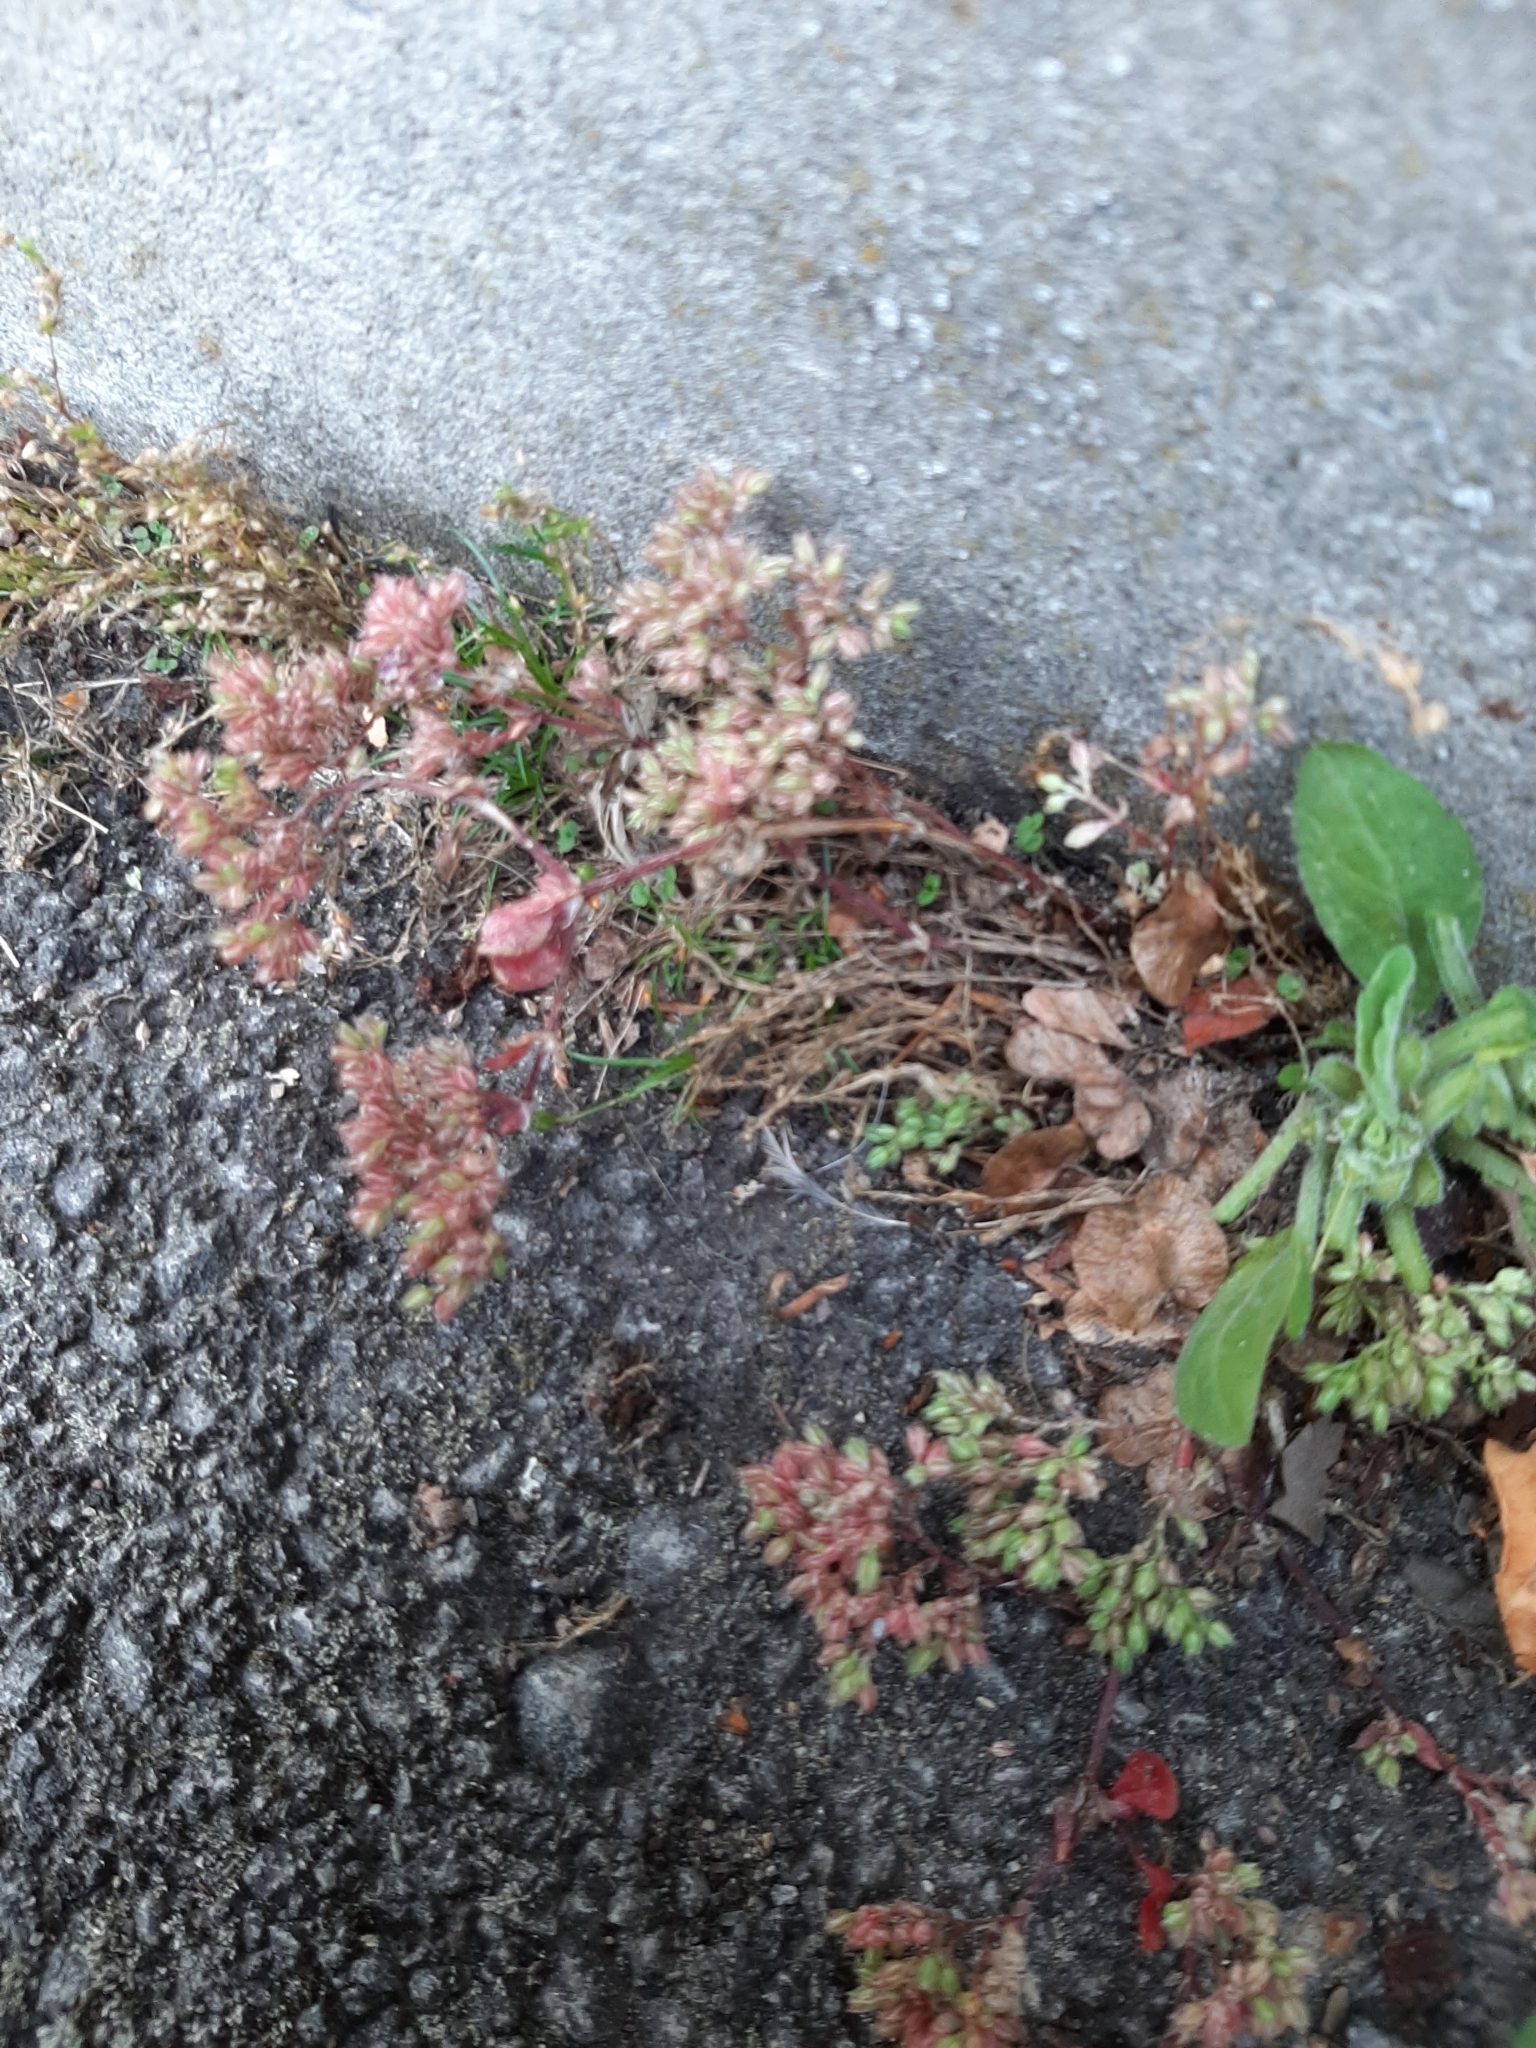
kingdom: Plantae
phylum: Tracheophyta
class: Magnoliopsida
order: Caryophyllales
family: Caryophyllaceae
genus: Polycarpon
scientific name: Polycarpon tetraphyllum
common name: Four-leaved all-seed
